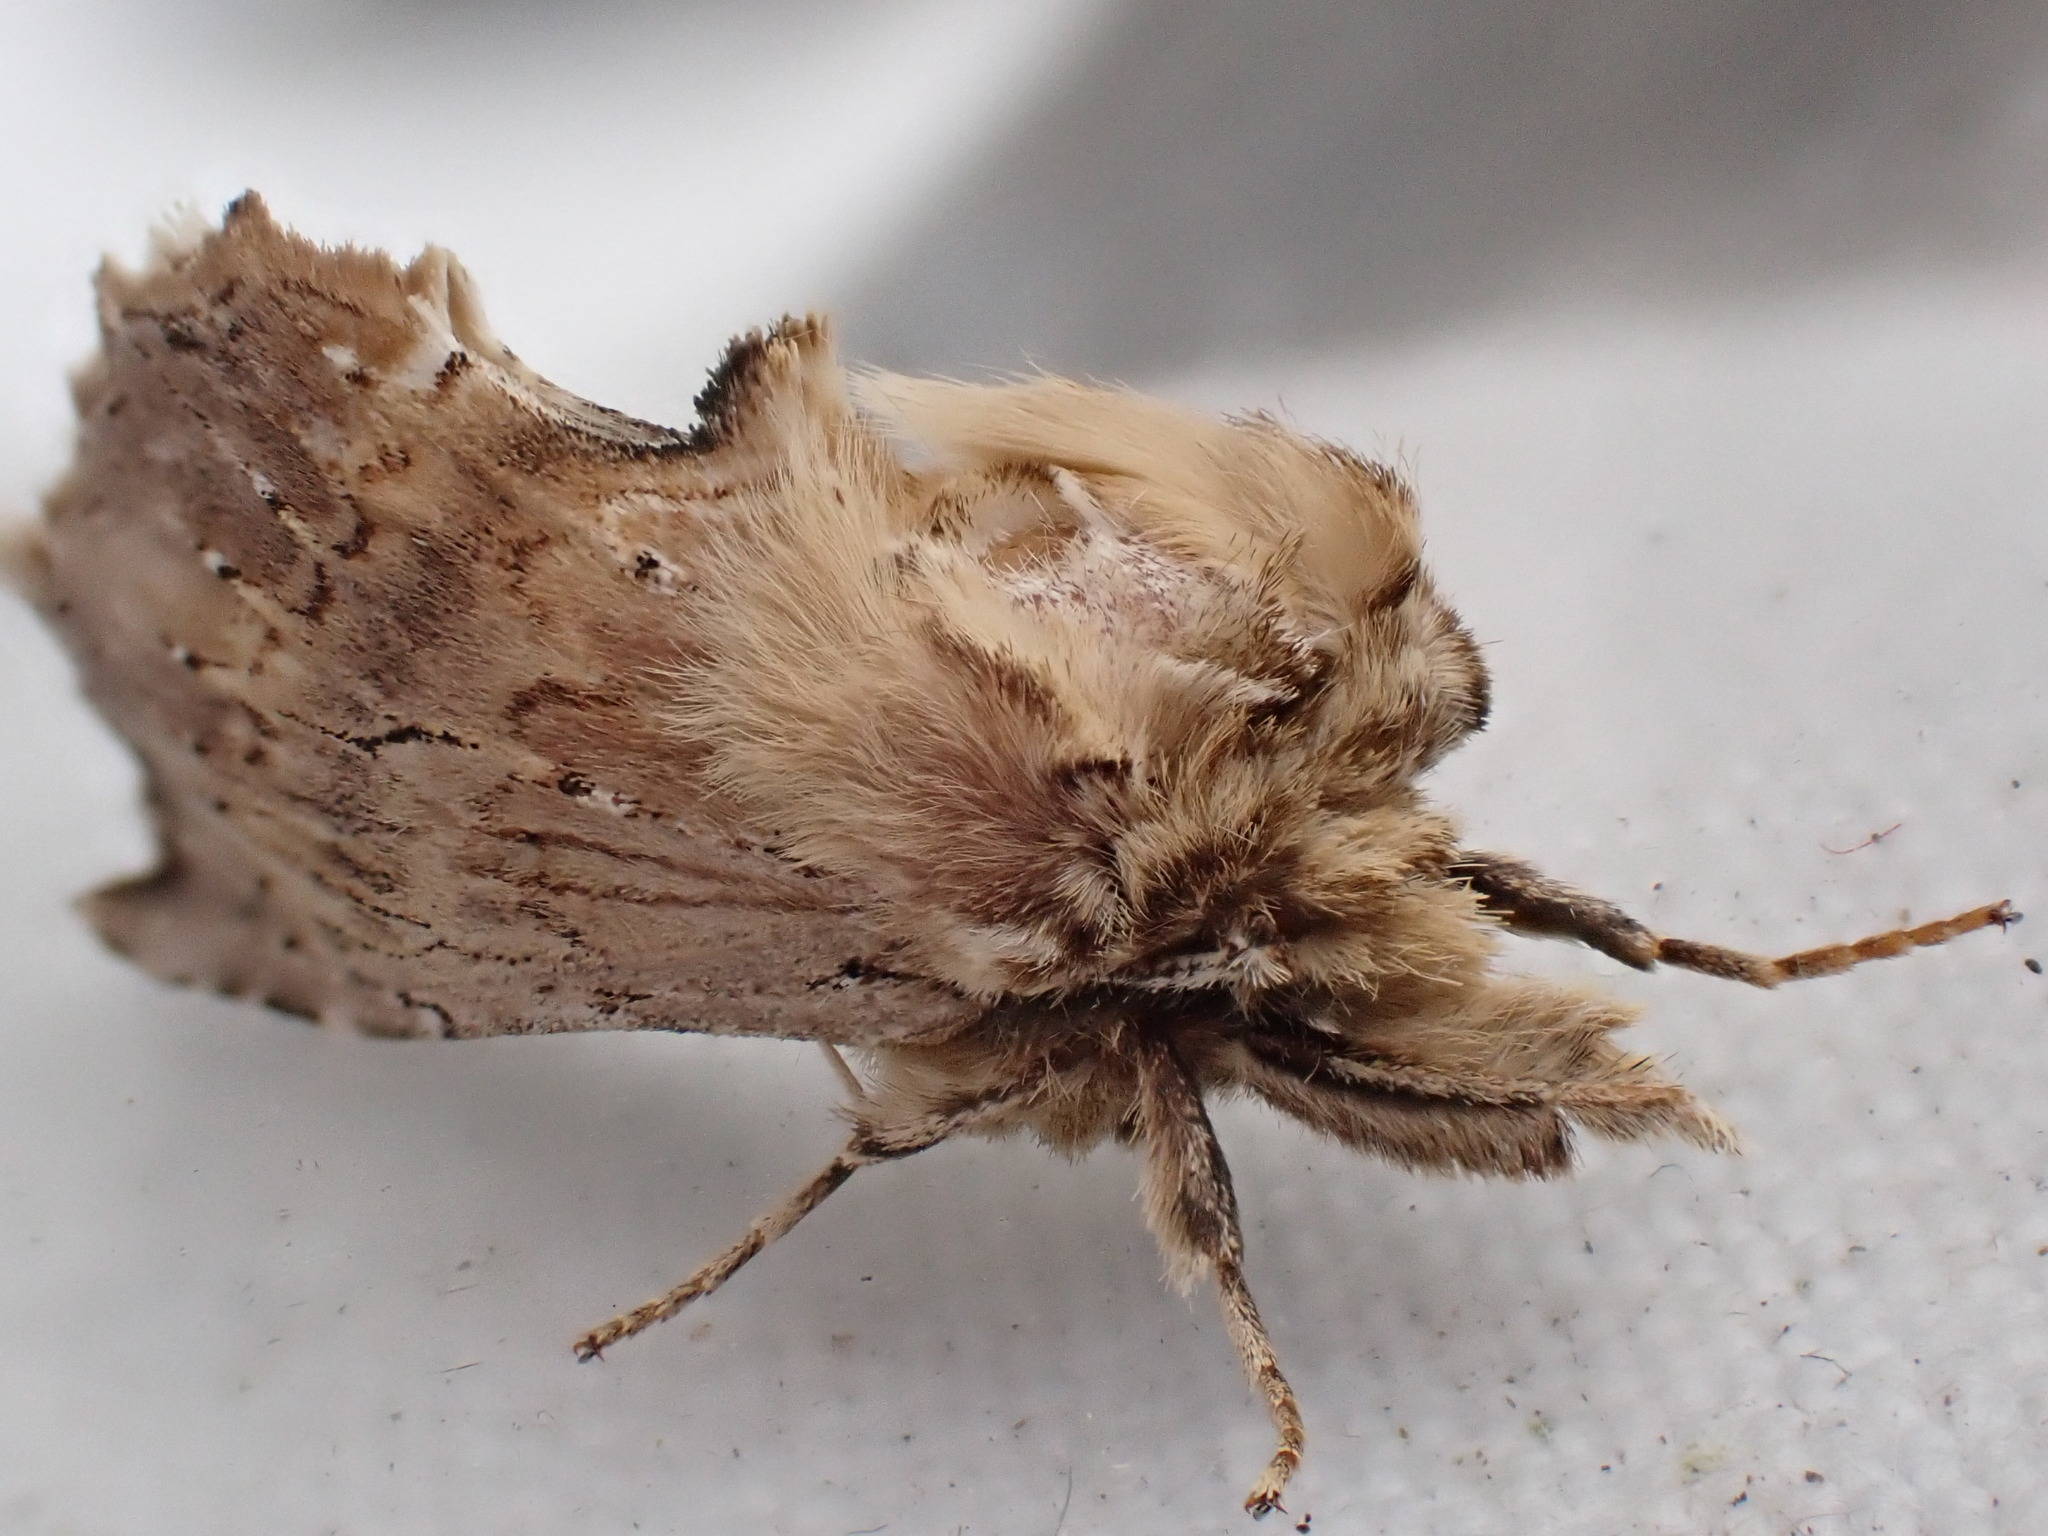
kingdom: Animalia
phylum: Arthropoda
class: Insecta
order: Lepidoptera
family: Notodontidae
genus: Pterostoma
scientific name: Pterostoma palpina
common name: Pale prominent
